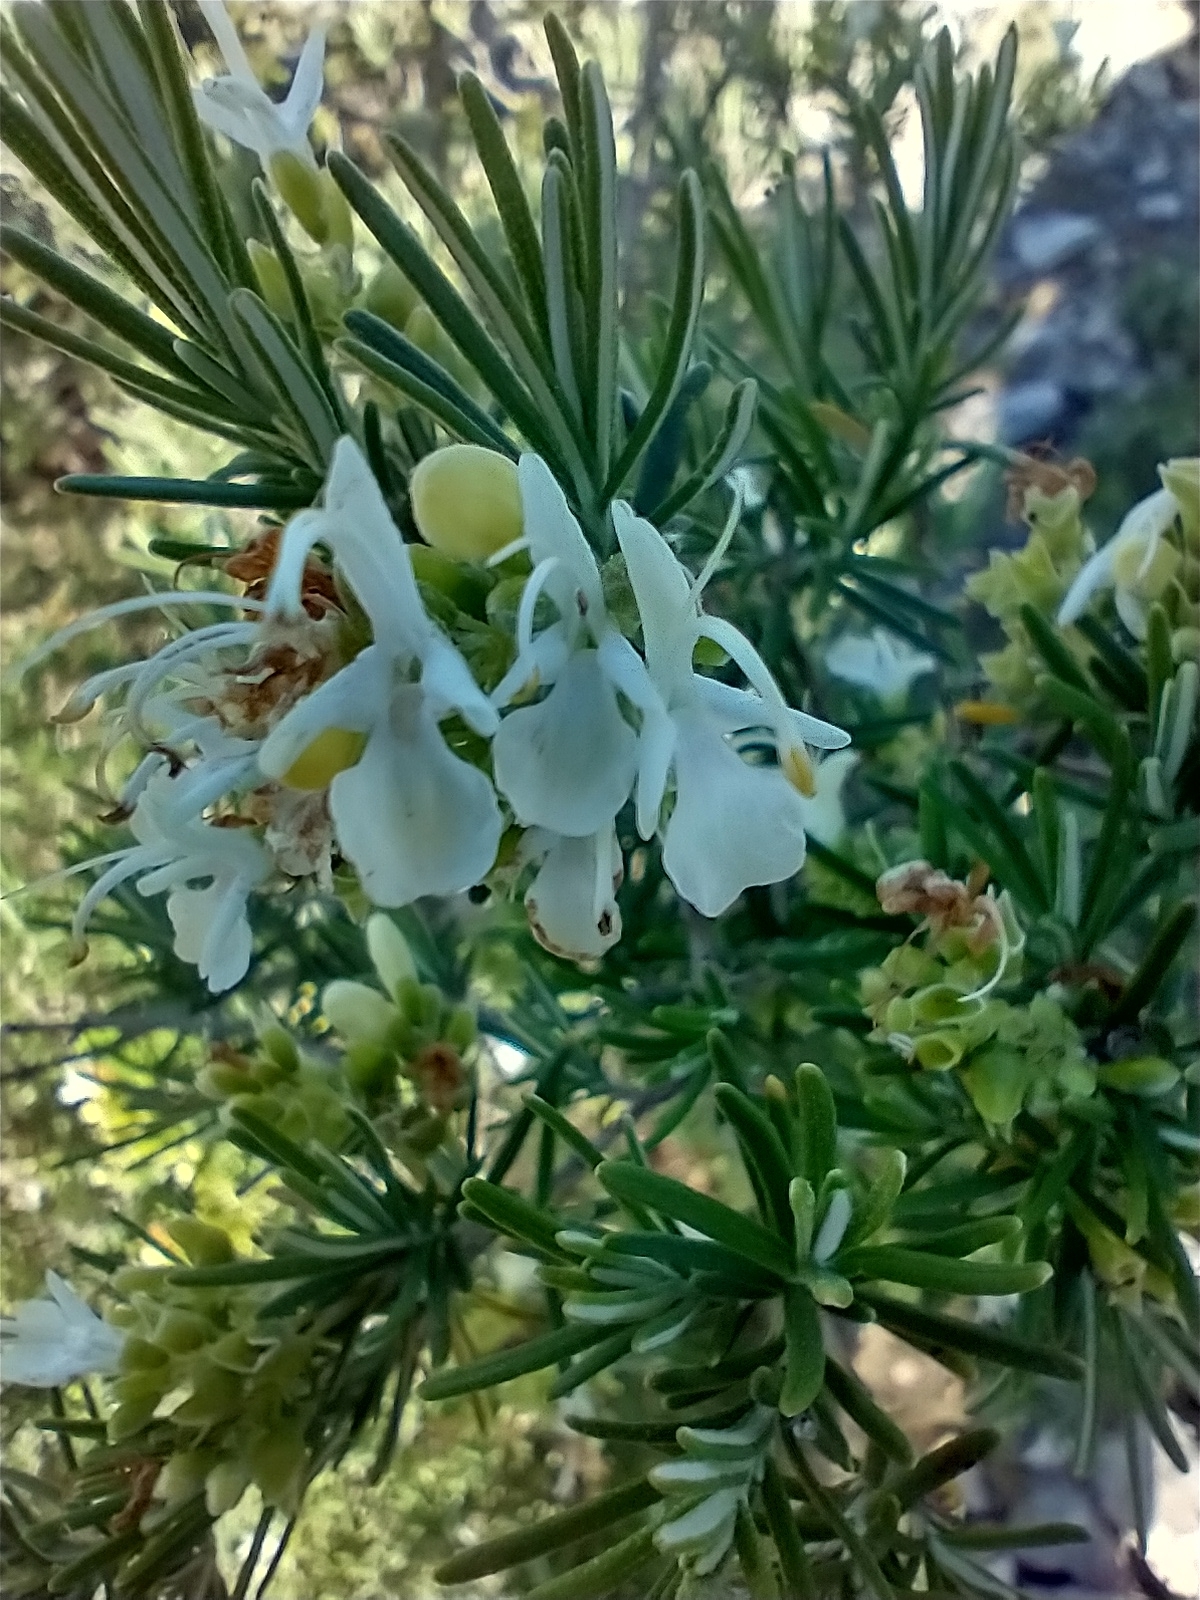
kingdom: Plantae
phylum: Tracheophyta
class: Magnoliopsida
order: Lamiales
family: Lamiaceae
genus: Salvia
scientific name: Salvia rosmarinus
